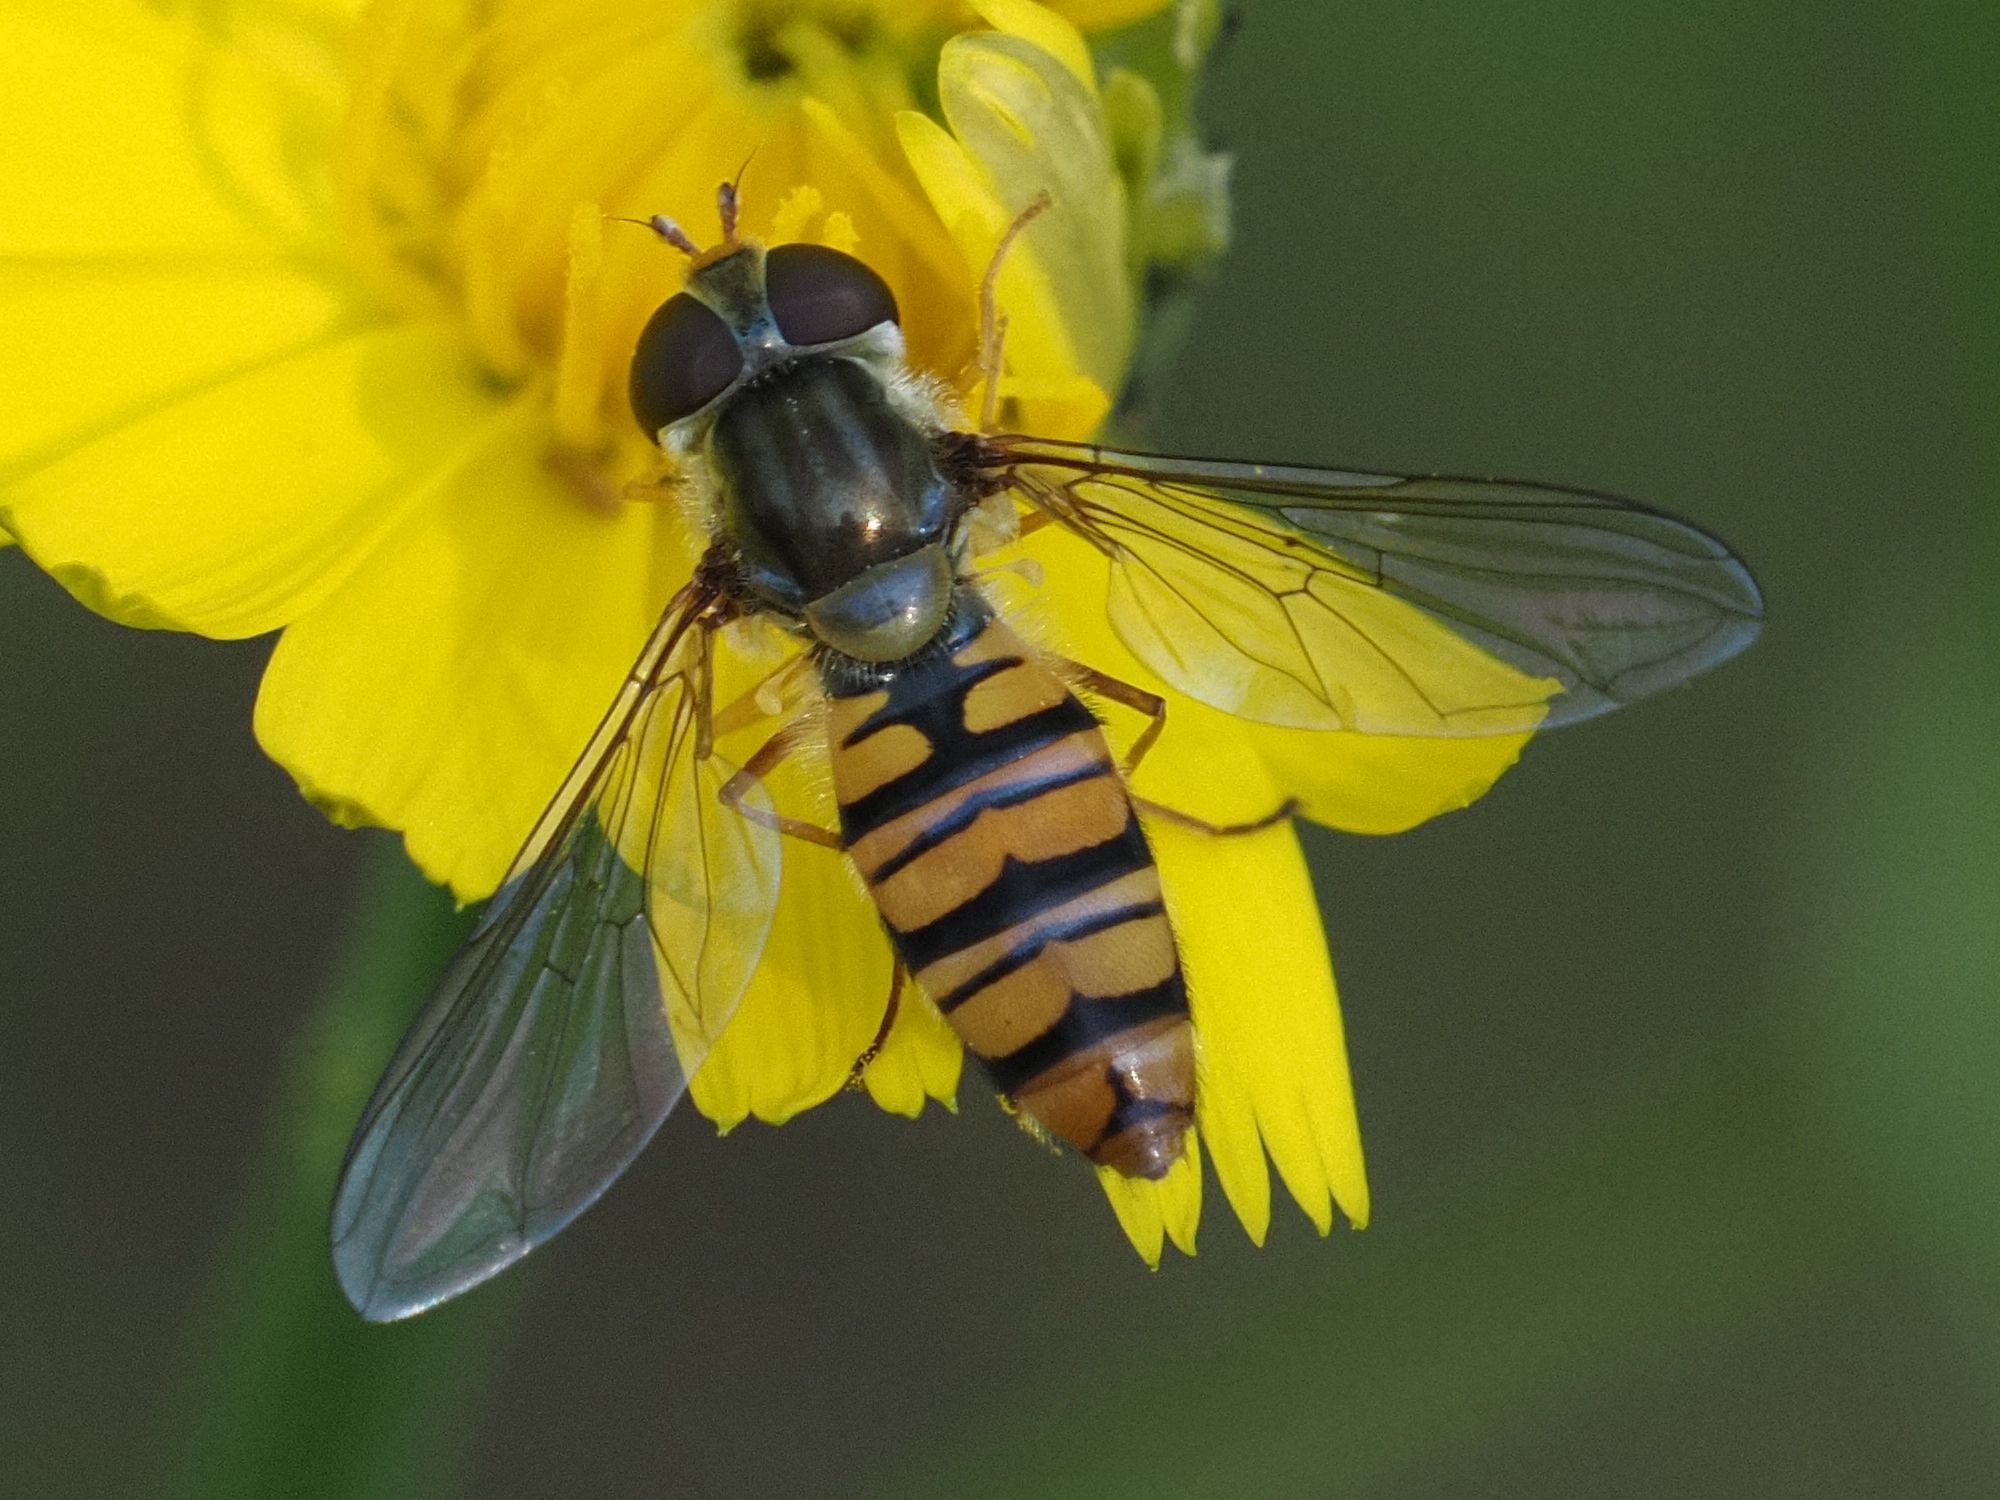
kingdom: Animalia
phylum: Arthropoda
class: Insecta
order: Diptera
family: Syrphidae
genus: Episyrphus
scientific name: Episyrphus balteatus
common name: Marmalade hoverfly
